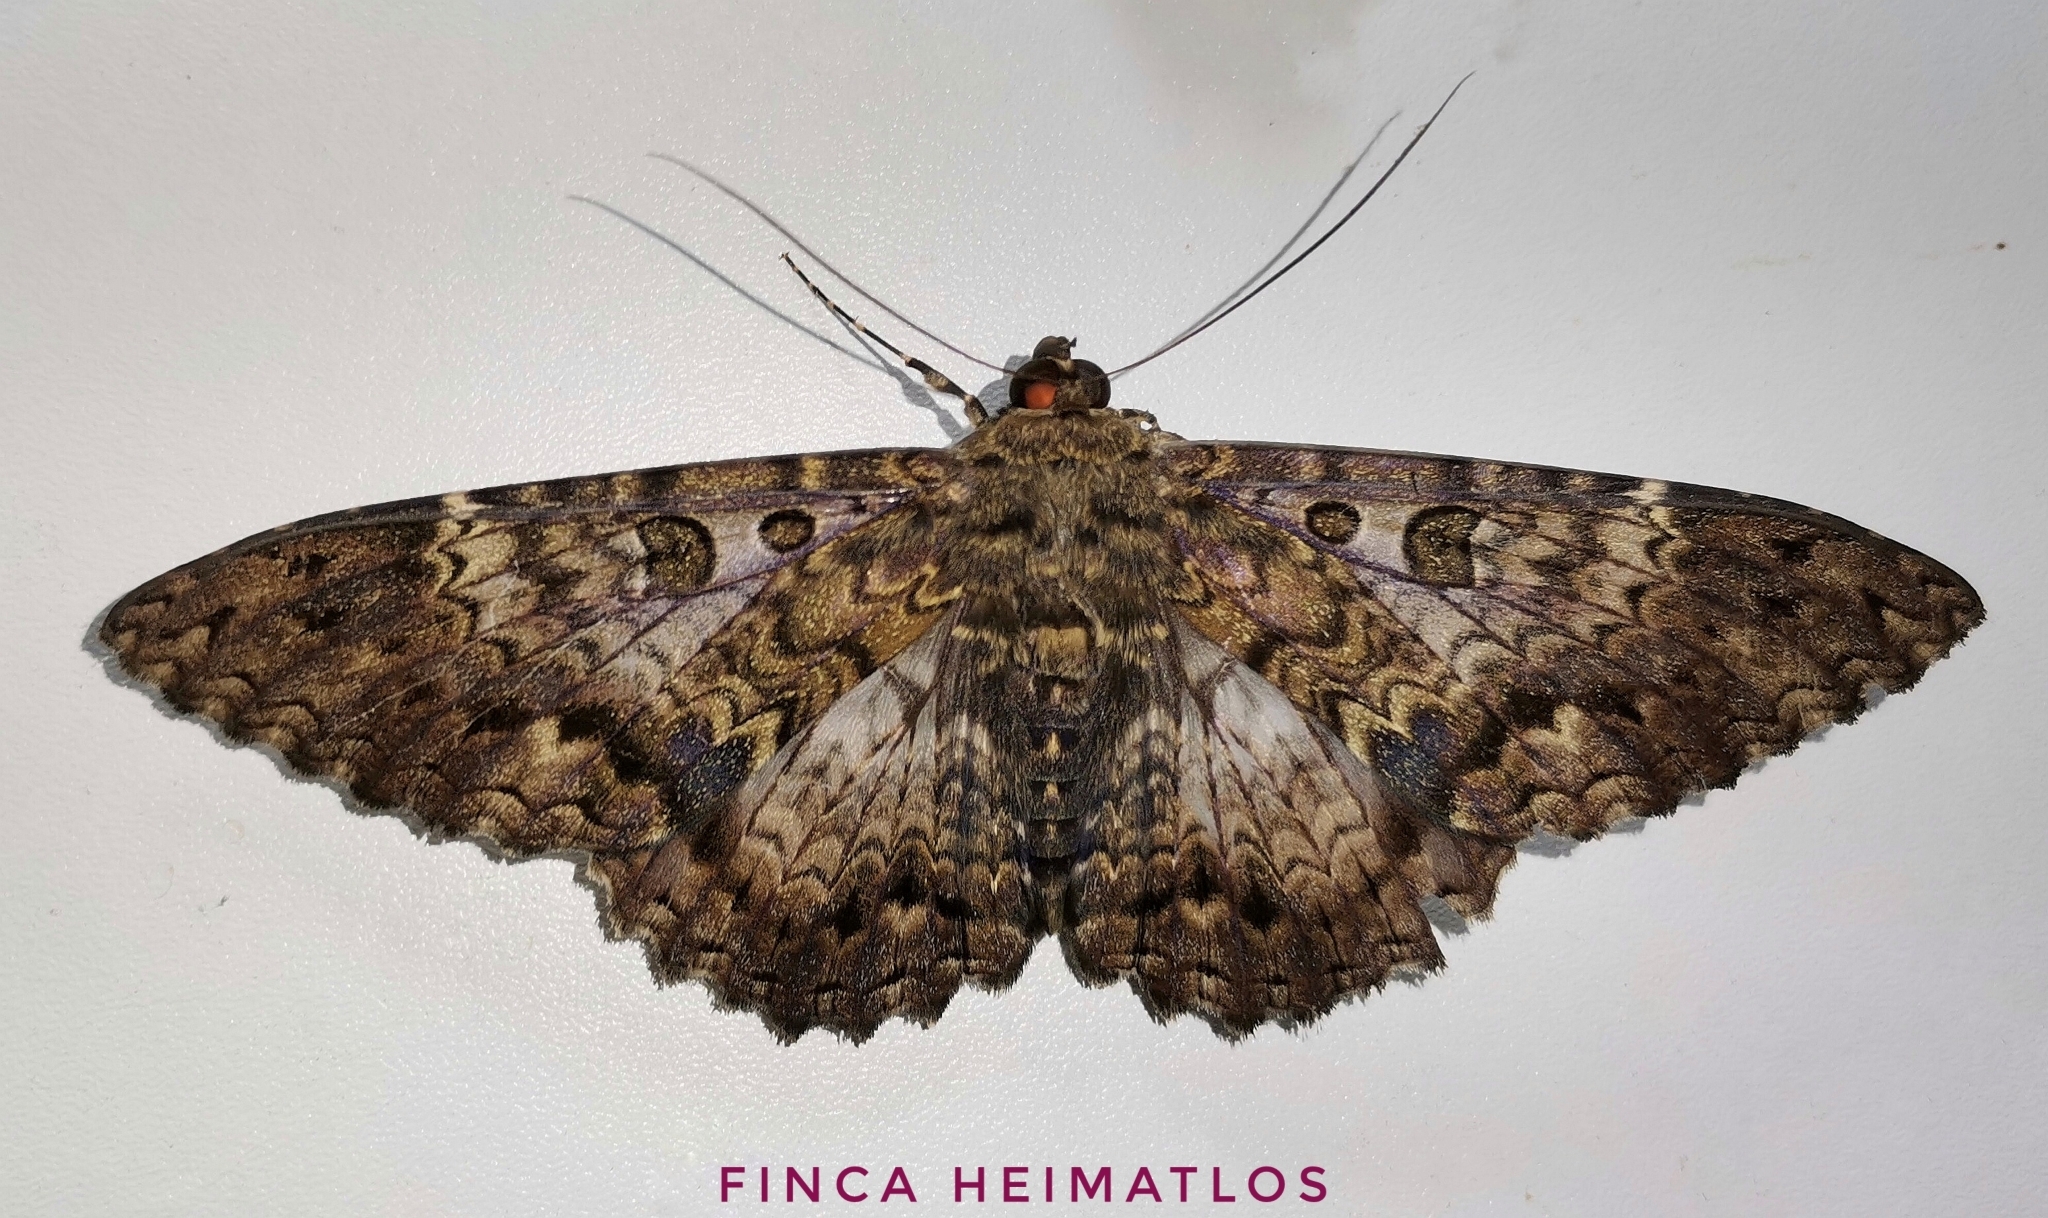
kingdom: Animalia
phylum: Arthropoda
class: Insecta
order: Lepidoptera
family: Erebidae
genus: Feigeria
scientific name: Feigeria scops
